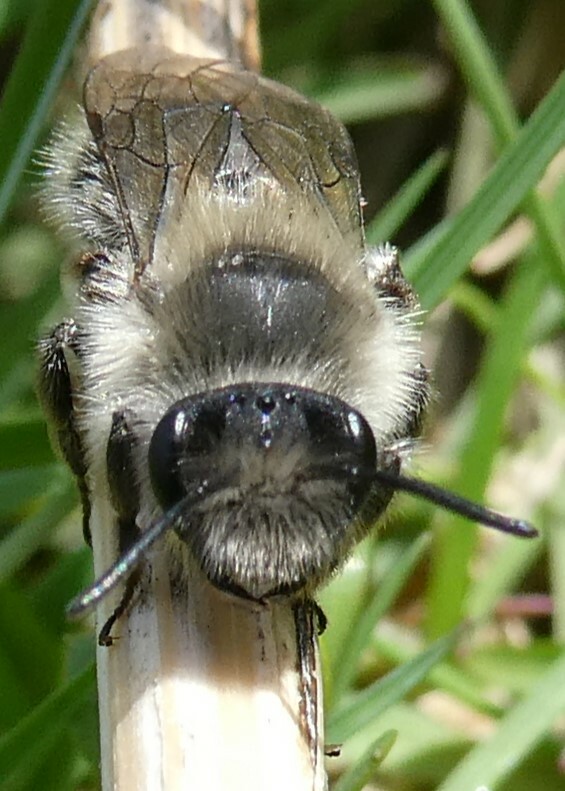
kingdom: Animalia
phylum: Arthropoda
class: Insecta
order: Hymenoptera
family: Andrenidae
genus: Andrena
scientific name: Andrena frigida
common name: Frigid mining bee
